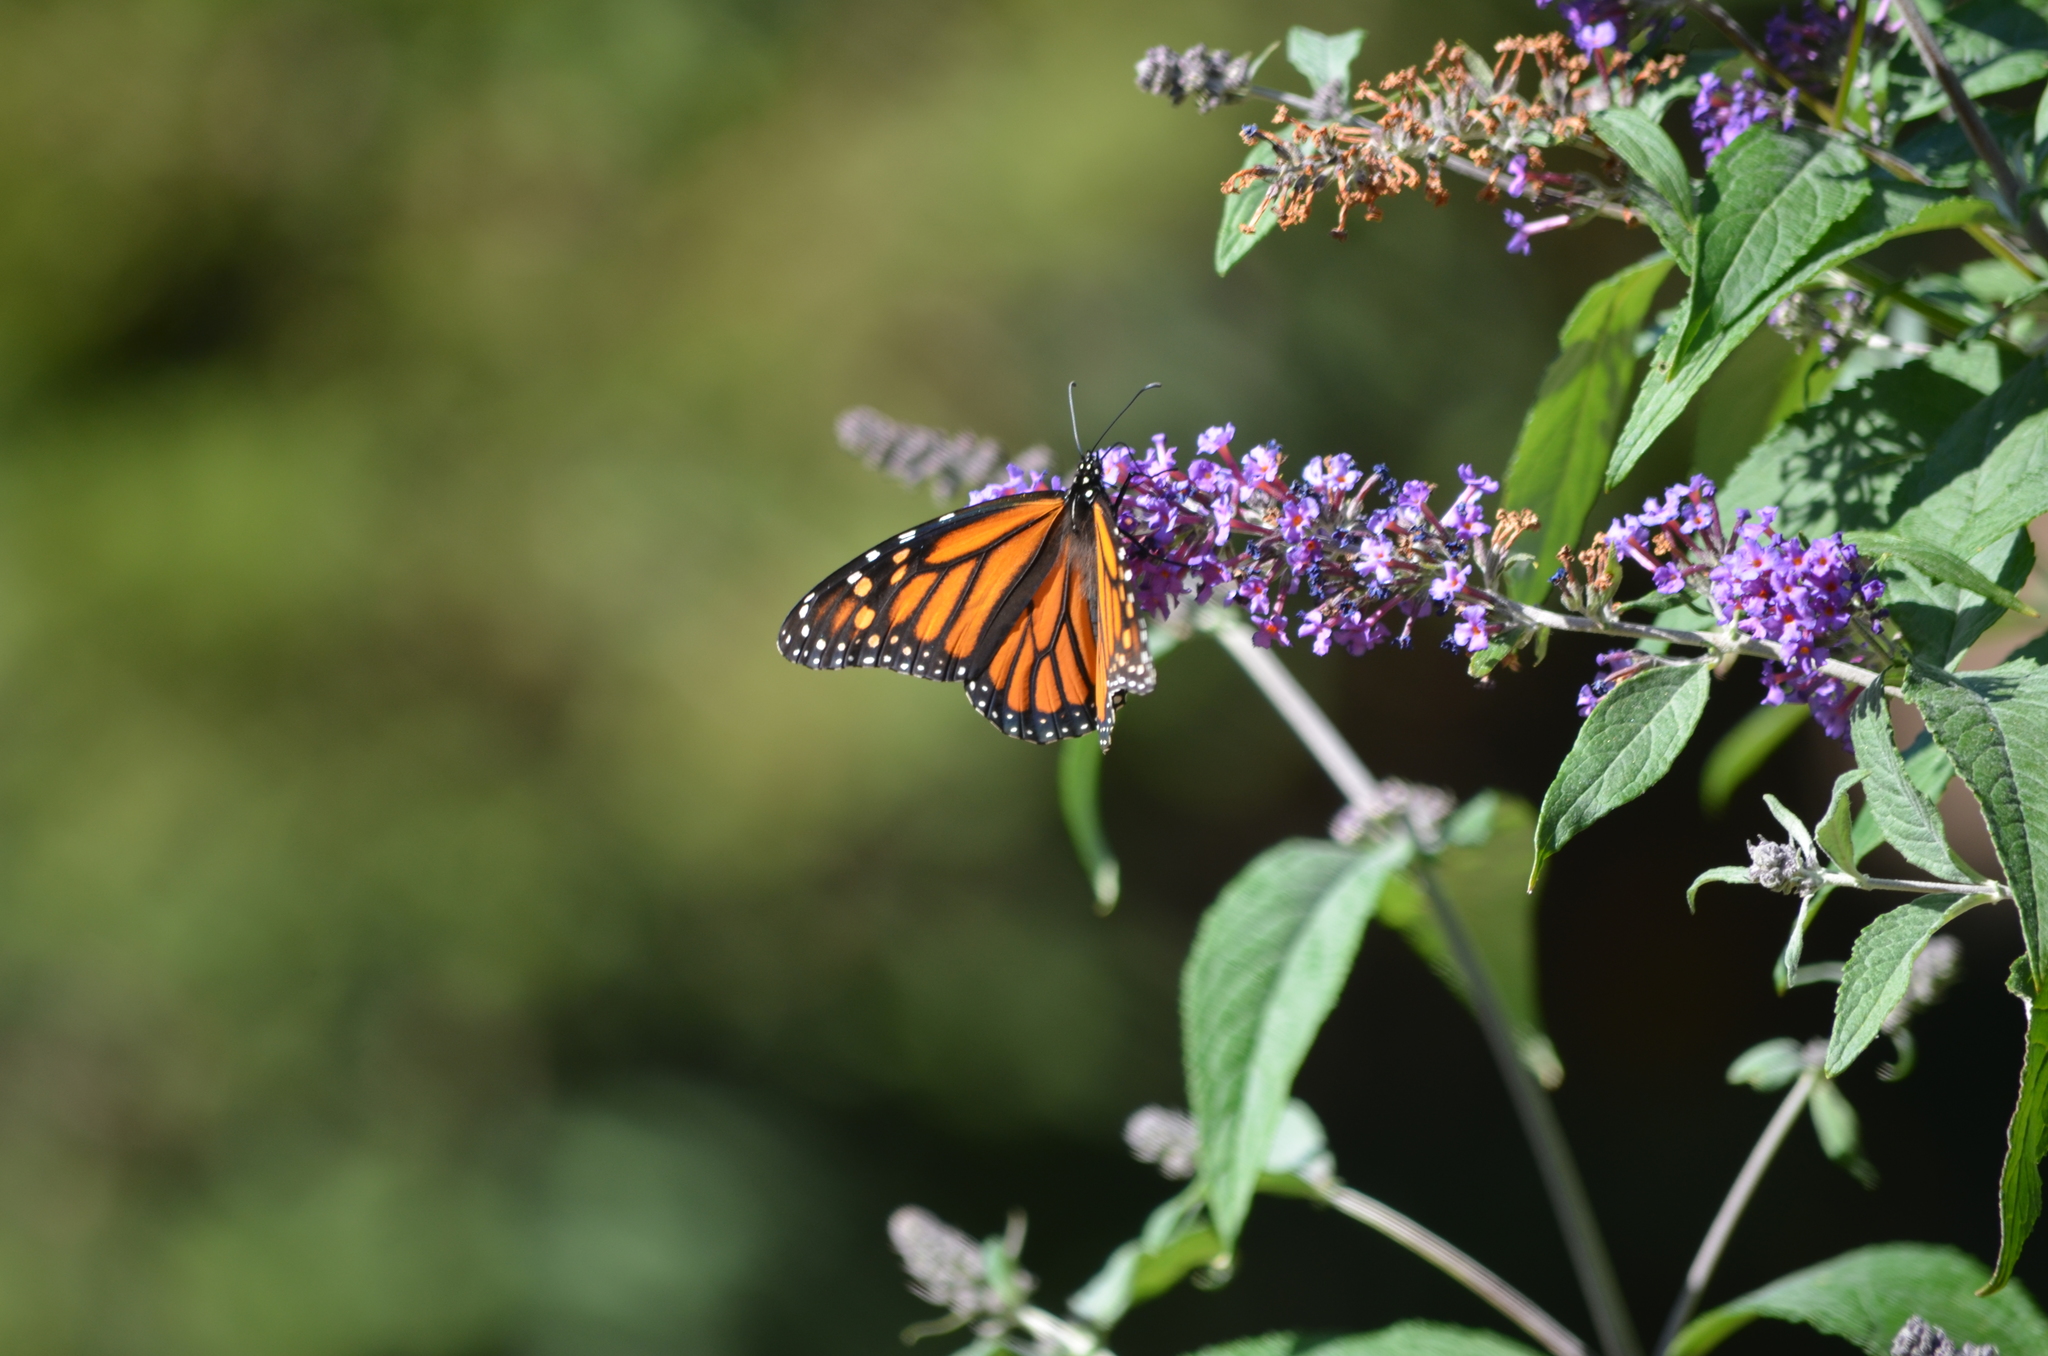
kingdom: Animalia
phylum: Arthropoda
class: Insecta
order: Lepidoptera
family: Nymphalidae
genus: Danaus
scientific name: Danaus plexippus
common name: Monarch
